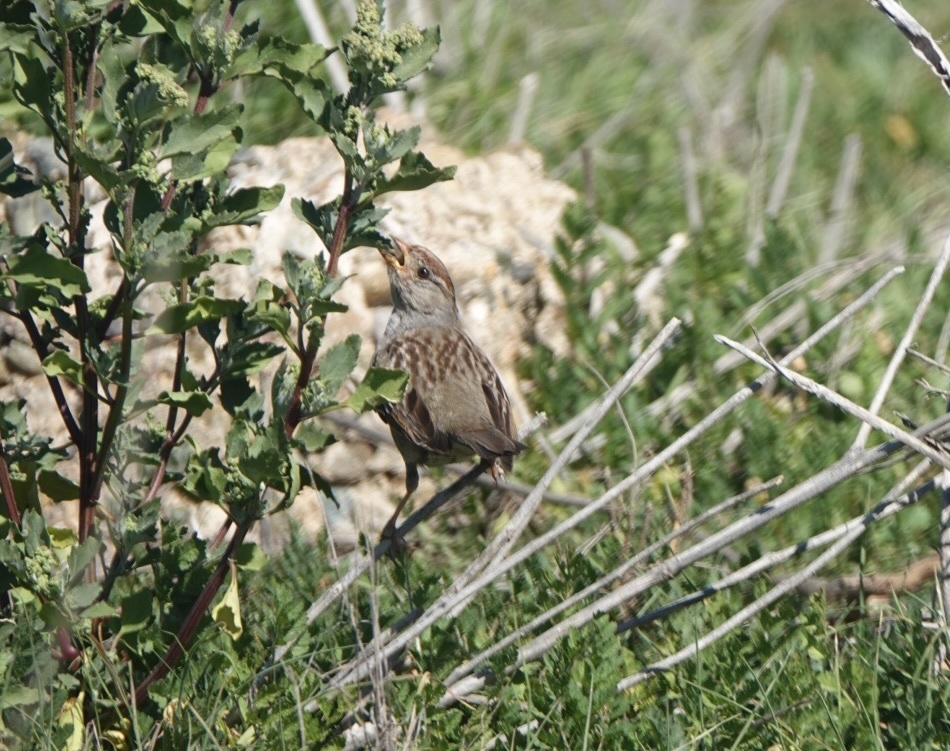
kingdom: Animalia
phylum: Chordata
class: Aves
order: Passeriformes
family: Passerellidae
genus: Zonotrichia
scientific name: Zonotrichia leucophrys
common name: White-crowned sparrow
